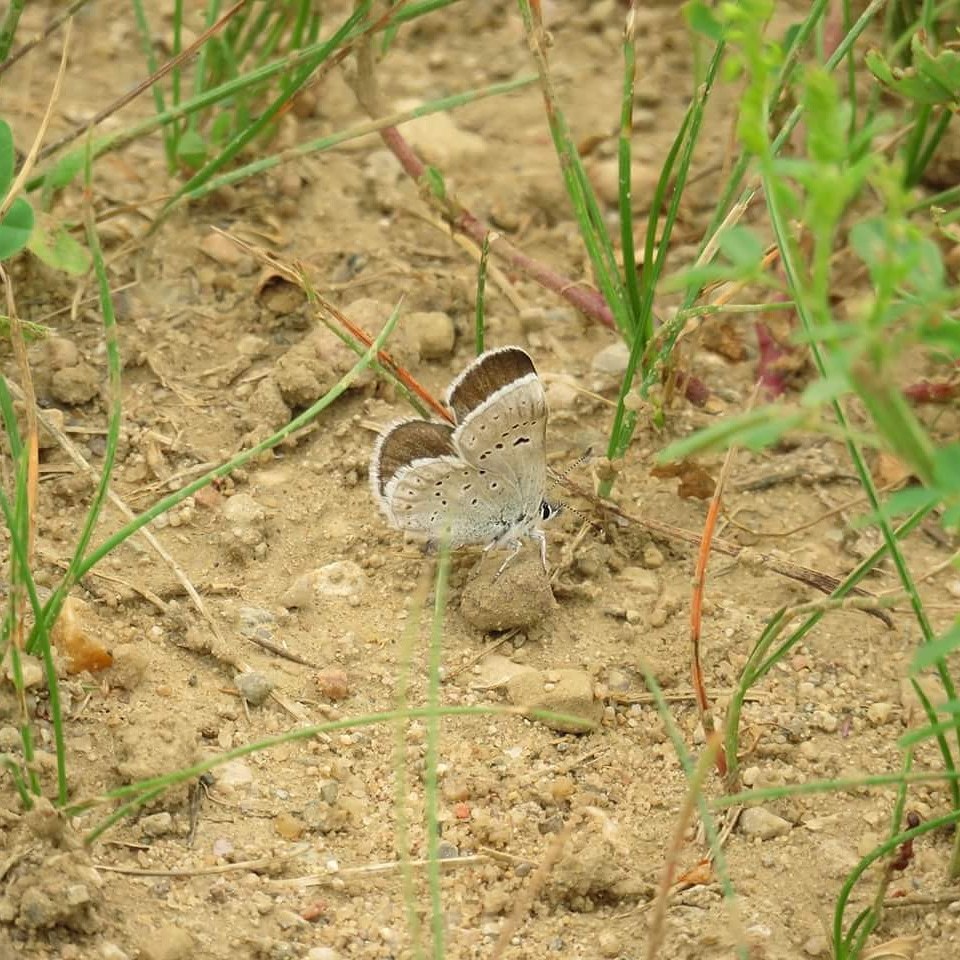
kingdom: Animalia
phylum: Arthropoda
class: Insecta
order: Lepidoptera
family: Lycaenidae
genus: Icaricia
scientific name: Icaricia saepiolus
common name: Greenish blue
